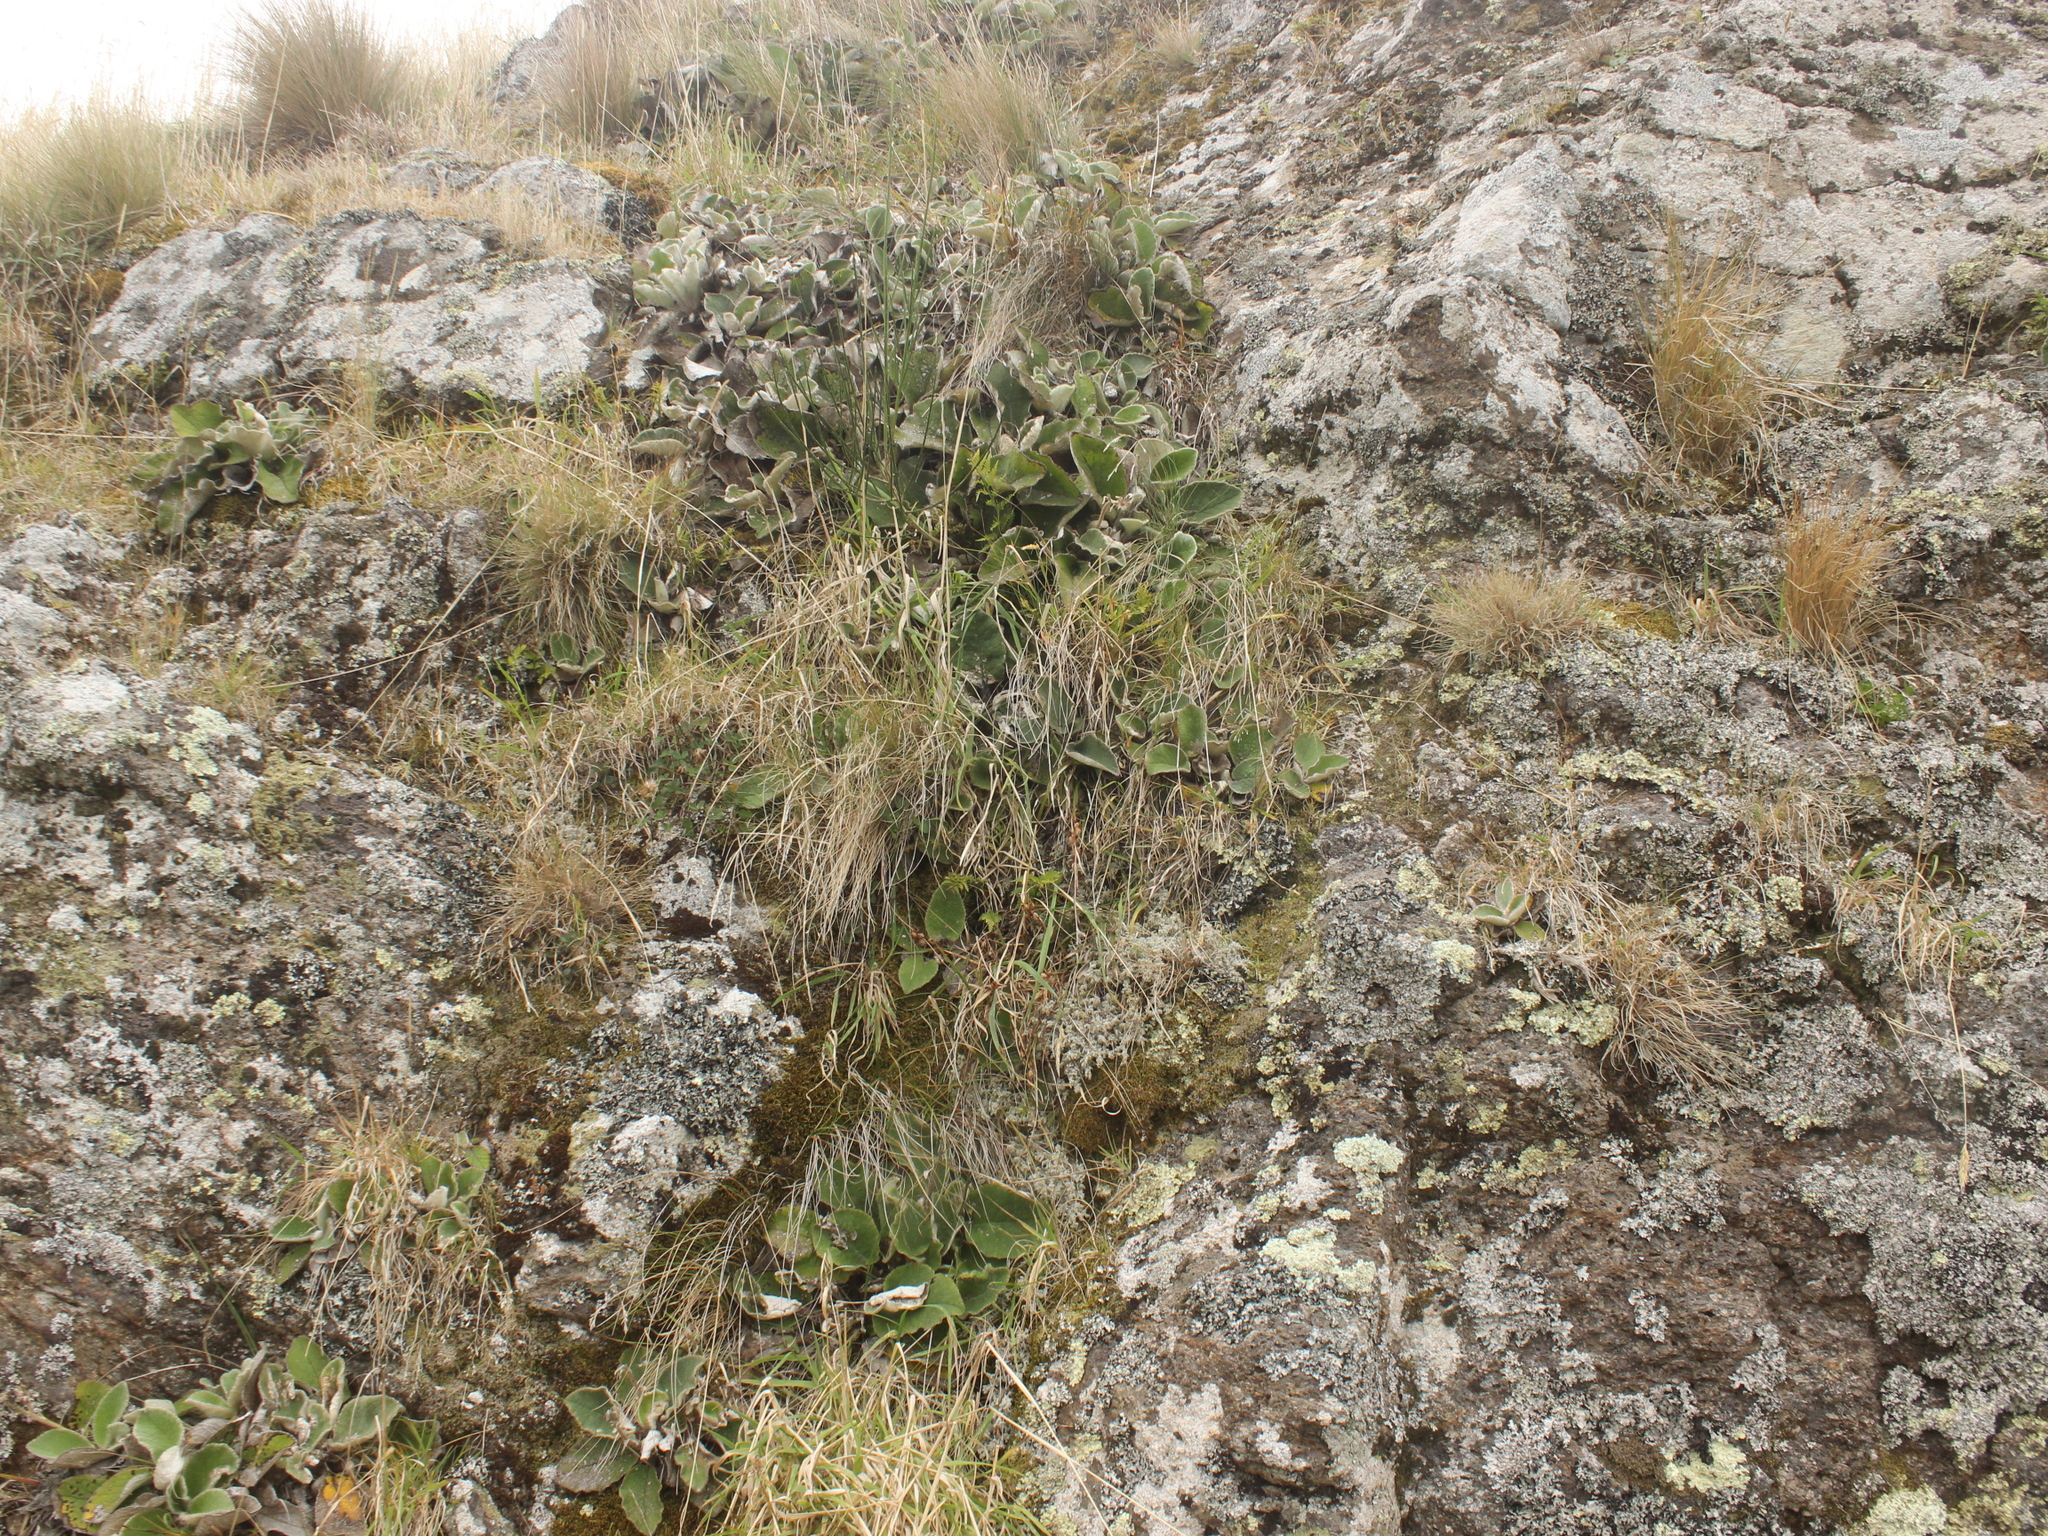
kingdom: Plantae
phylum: Tracheophyta
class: Magnoliopsida
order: Asterales
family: Asteraceae
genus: Brachyglottis
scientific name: Brachyglottis lagopus
